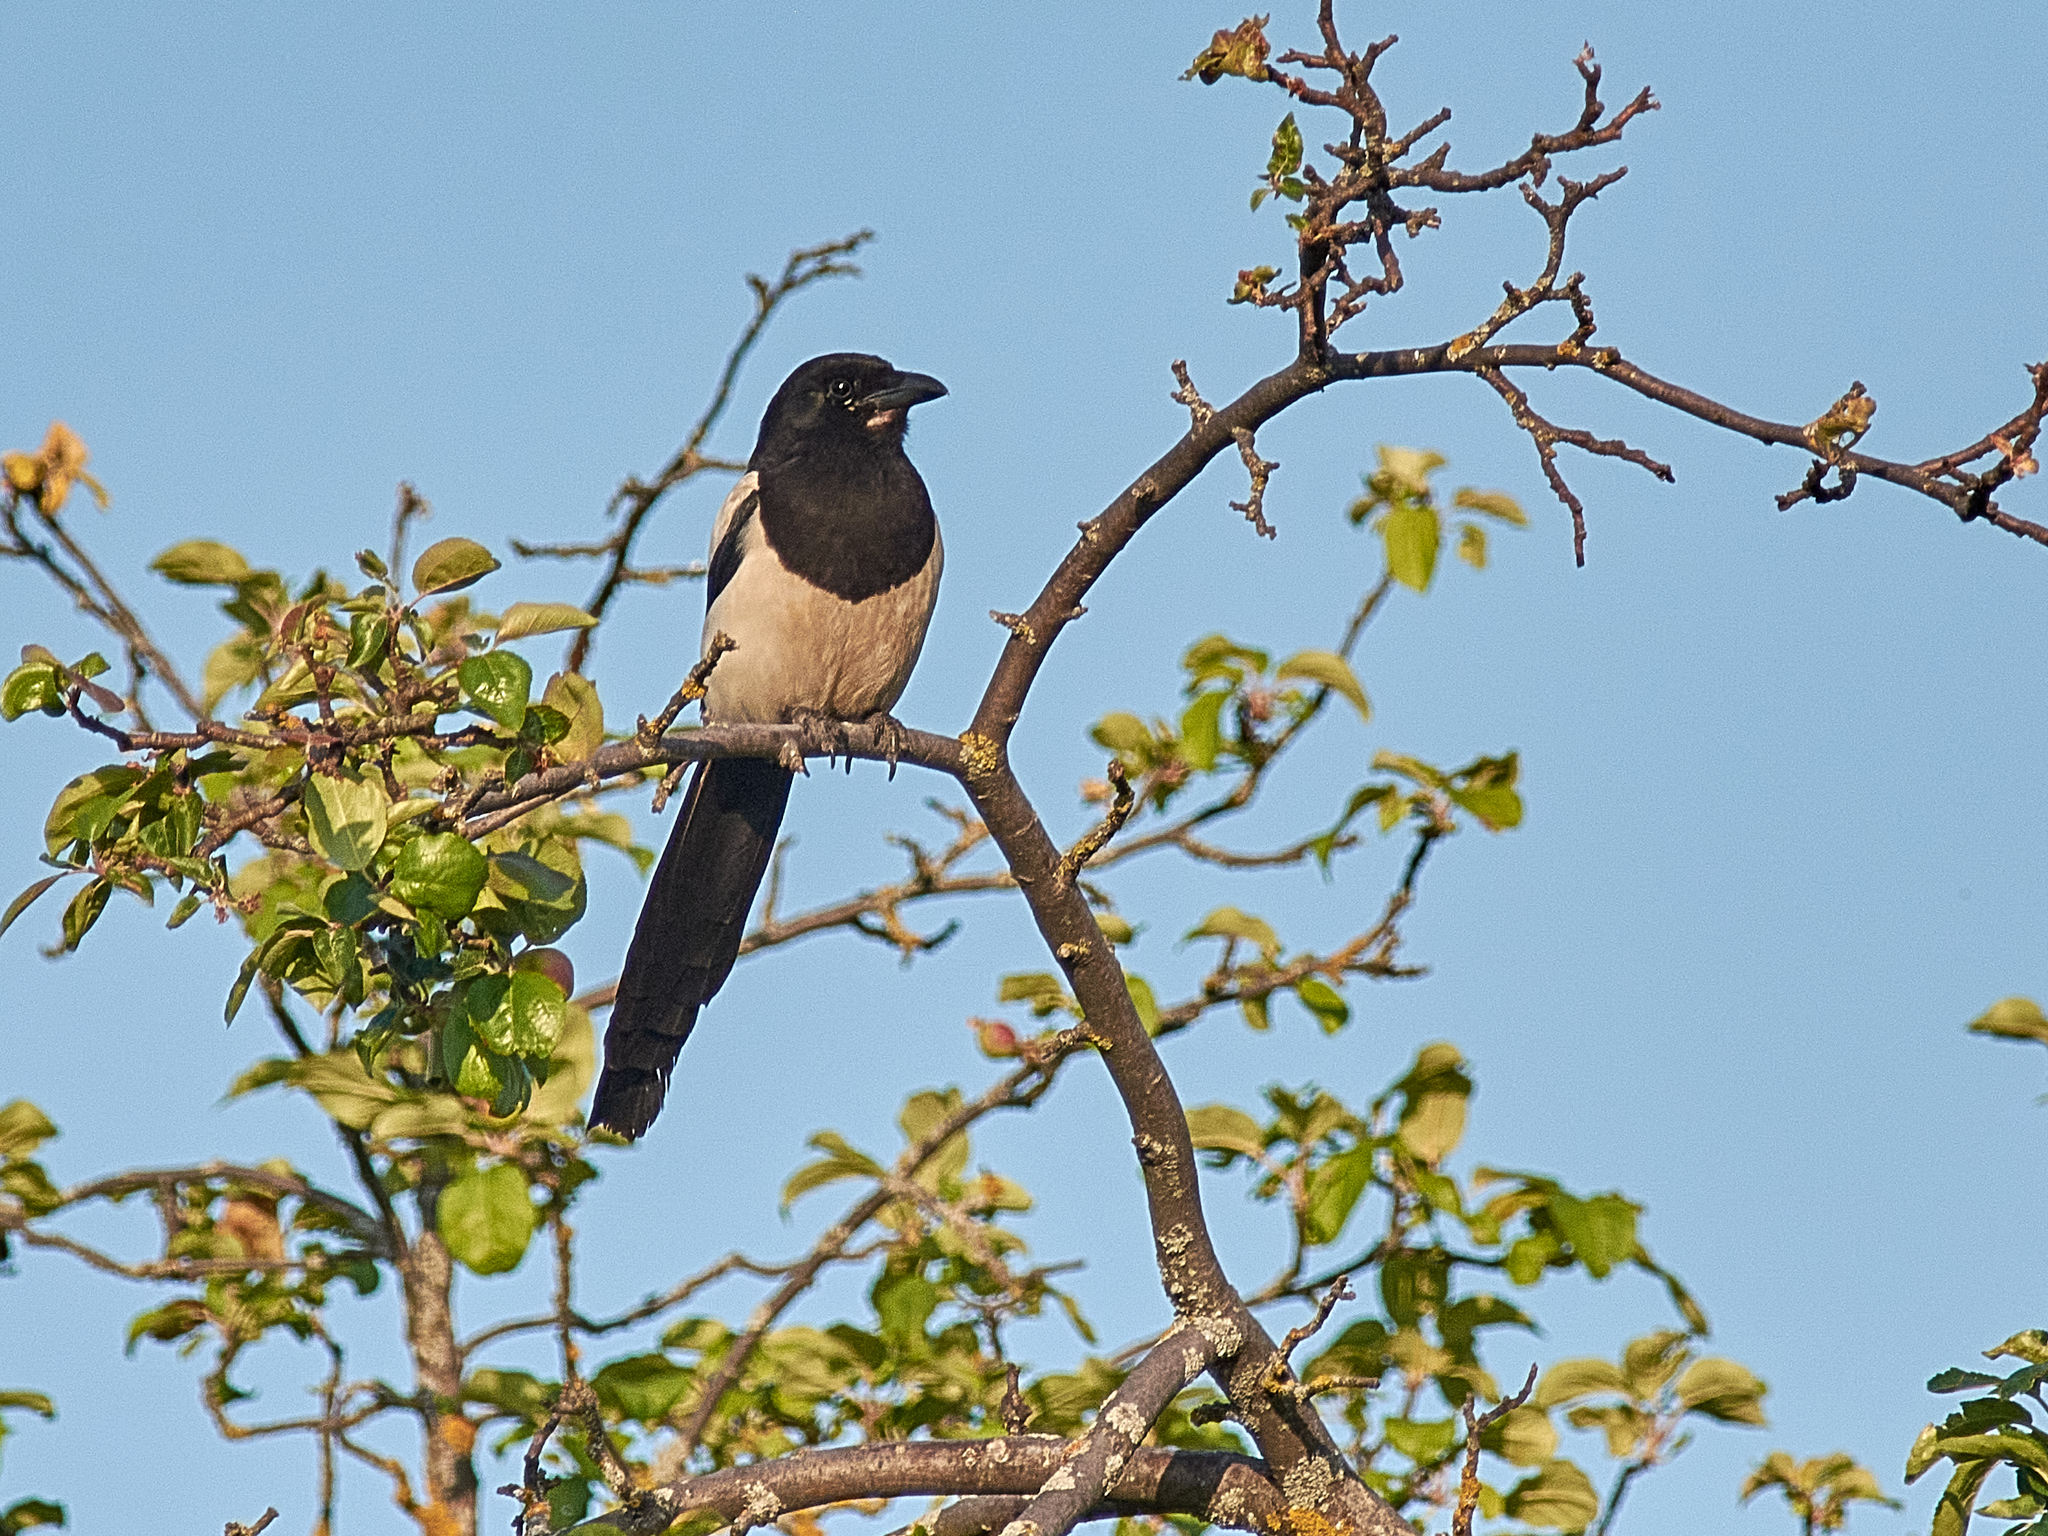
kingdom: Animalia
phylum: Chordata
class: Aves
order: Passeriformes
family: Corvidae
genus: Pica
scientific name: Pica pica
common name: Eurasian magpie
